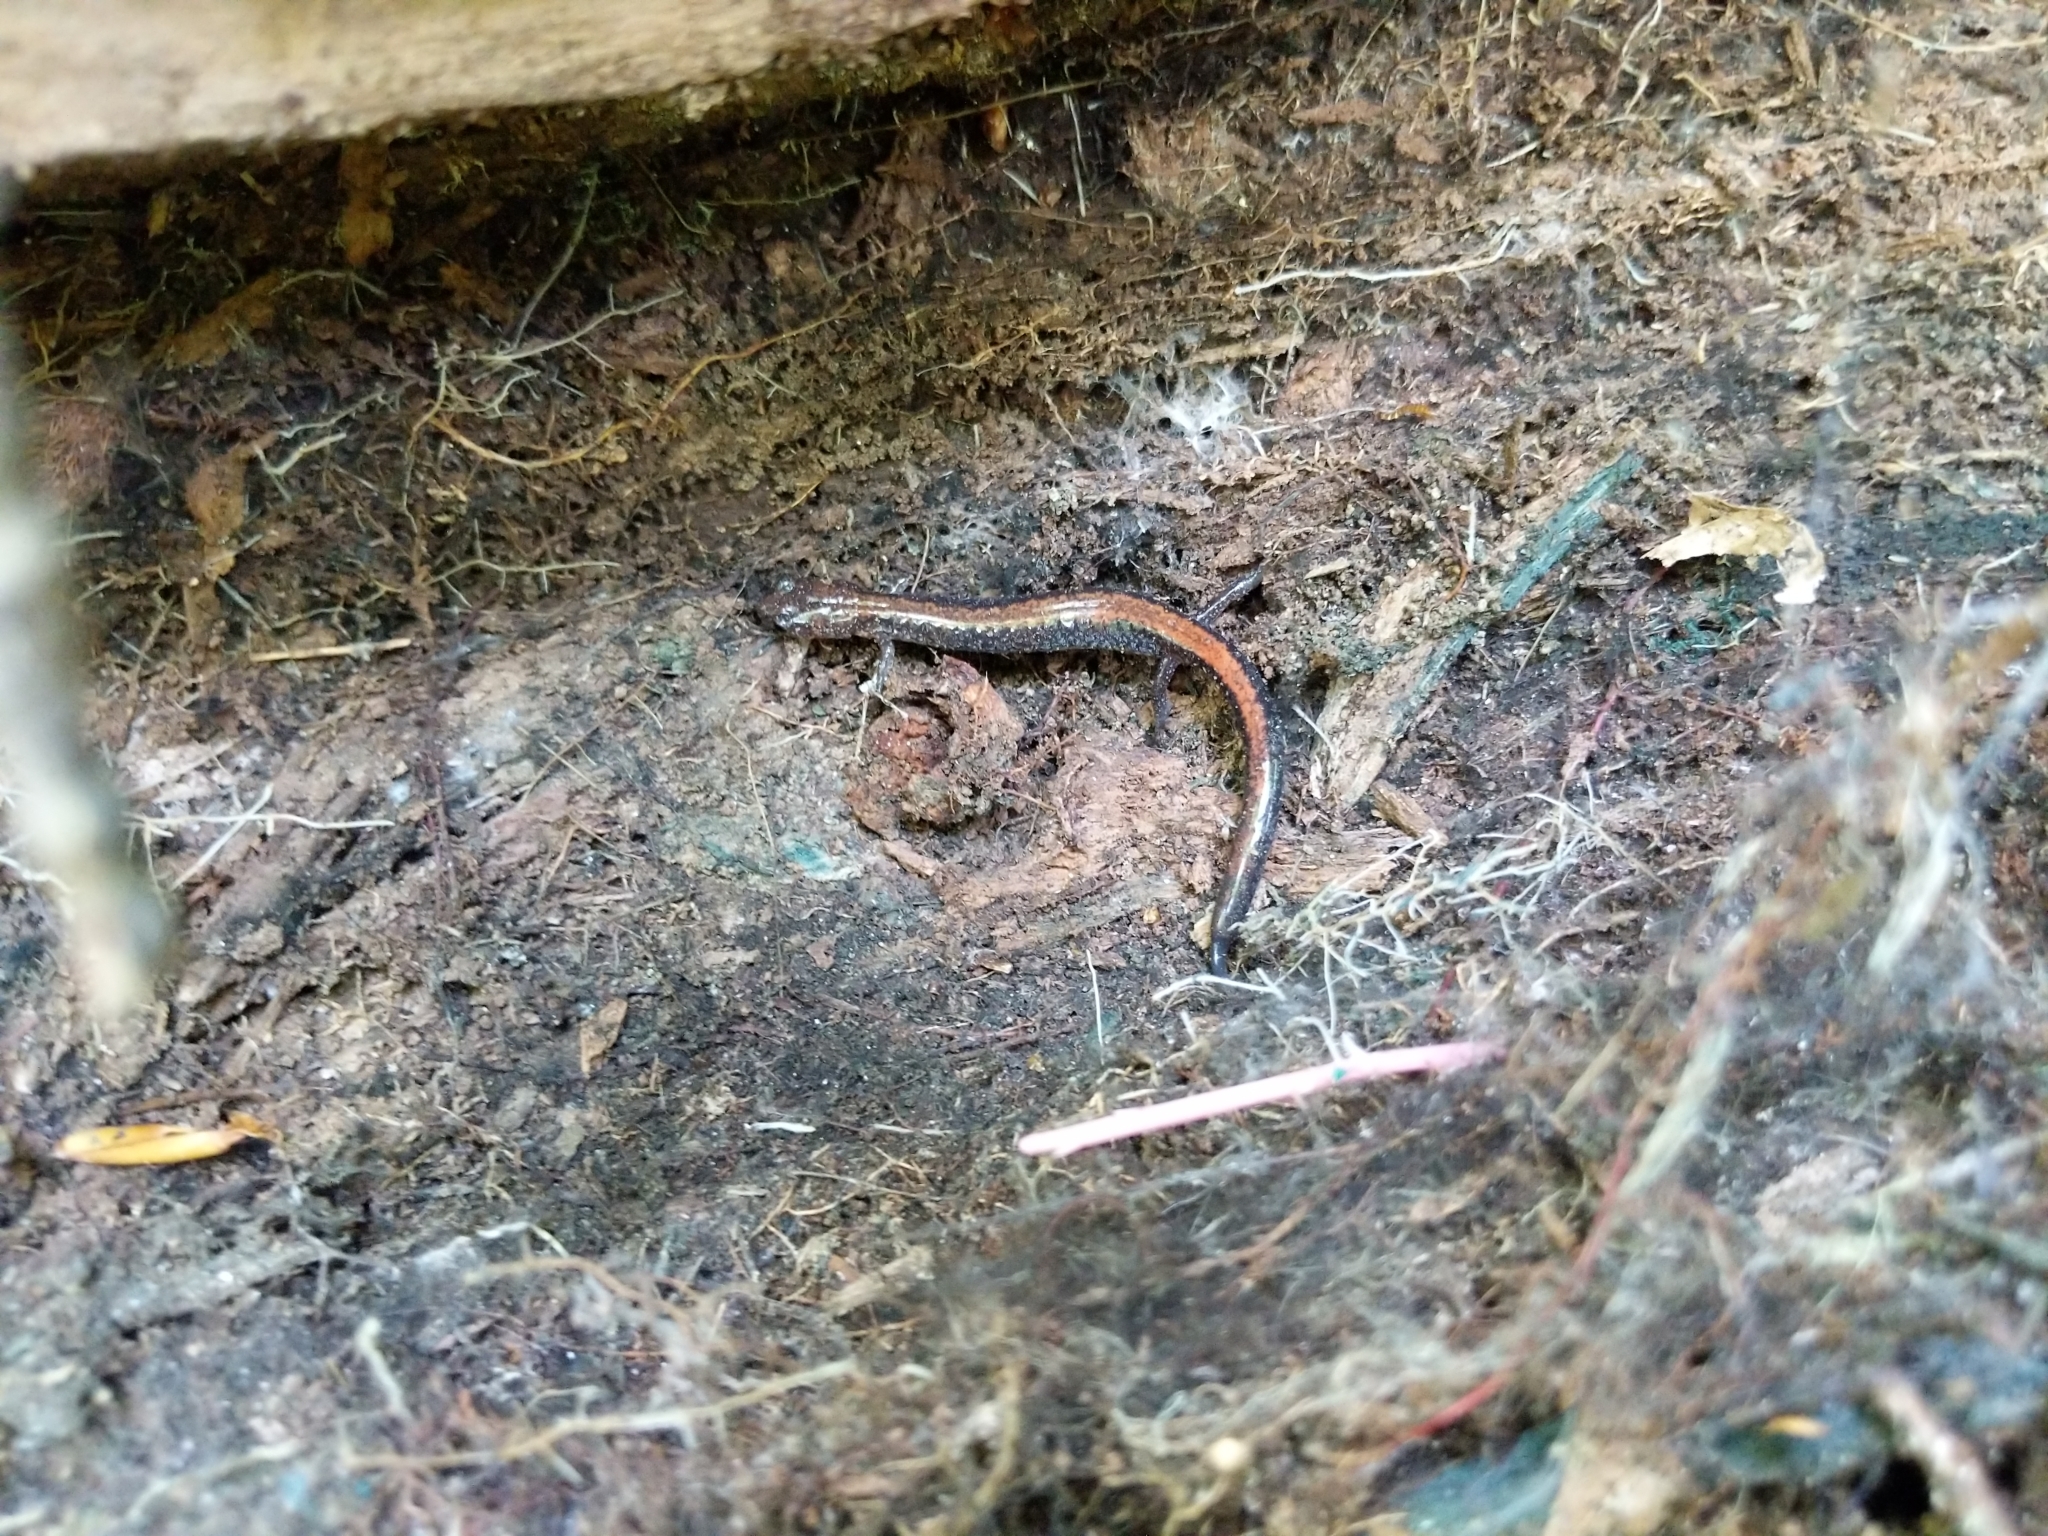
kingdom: Animalia
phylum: Chordata
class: Amphibia
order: Caudata
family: Plethodontidae
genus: Plethodon
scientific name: Plethodon cinereus
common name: Redback salamander
